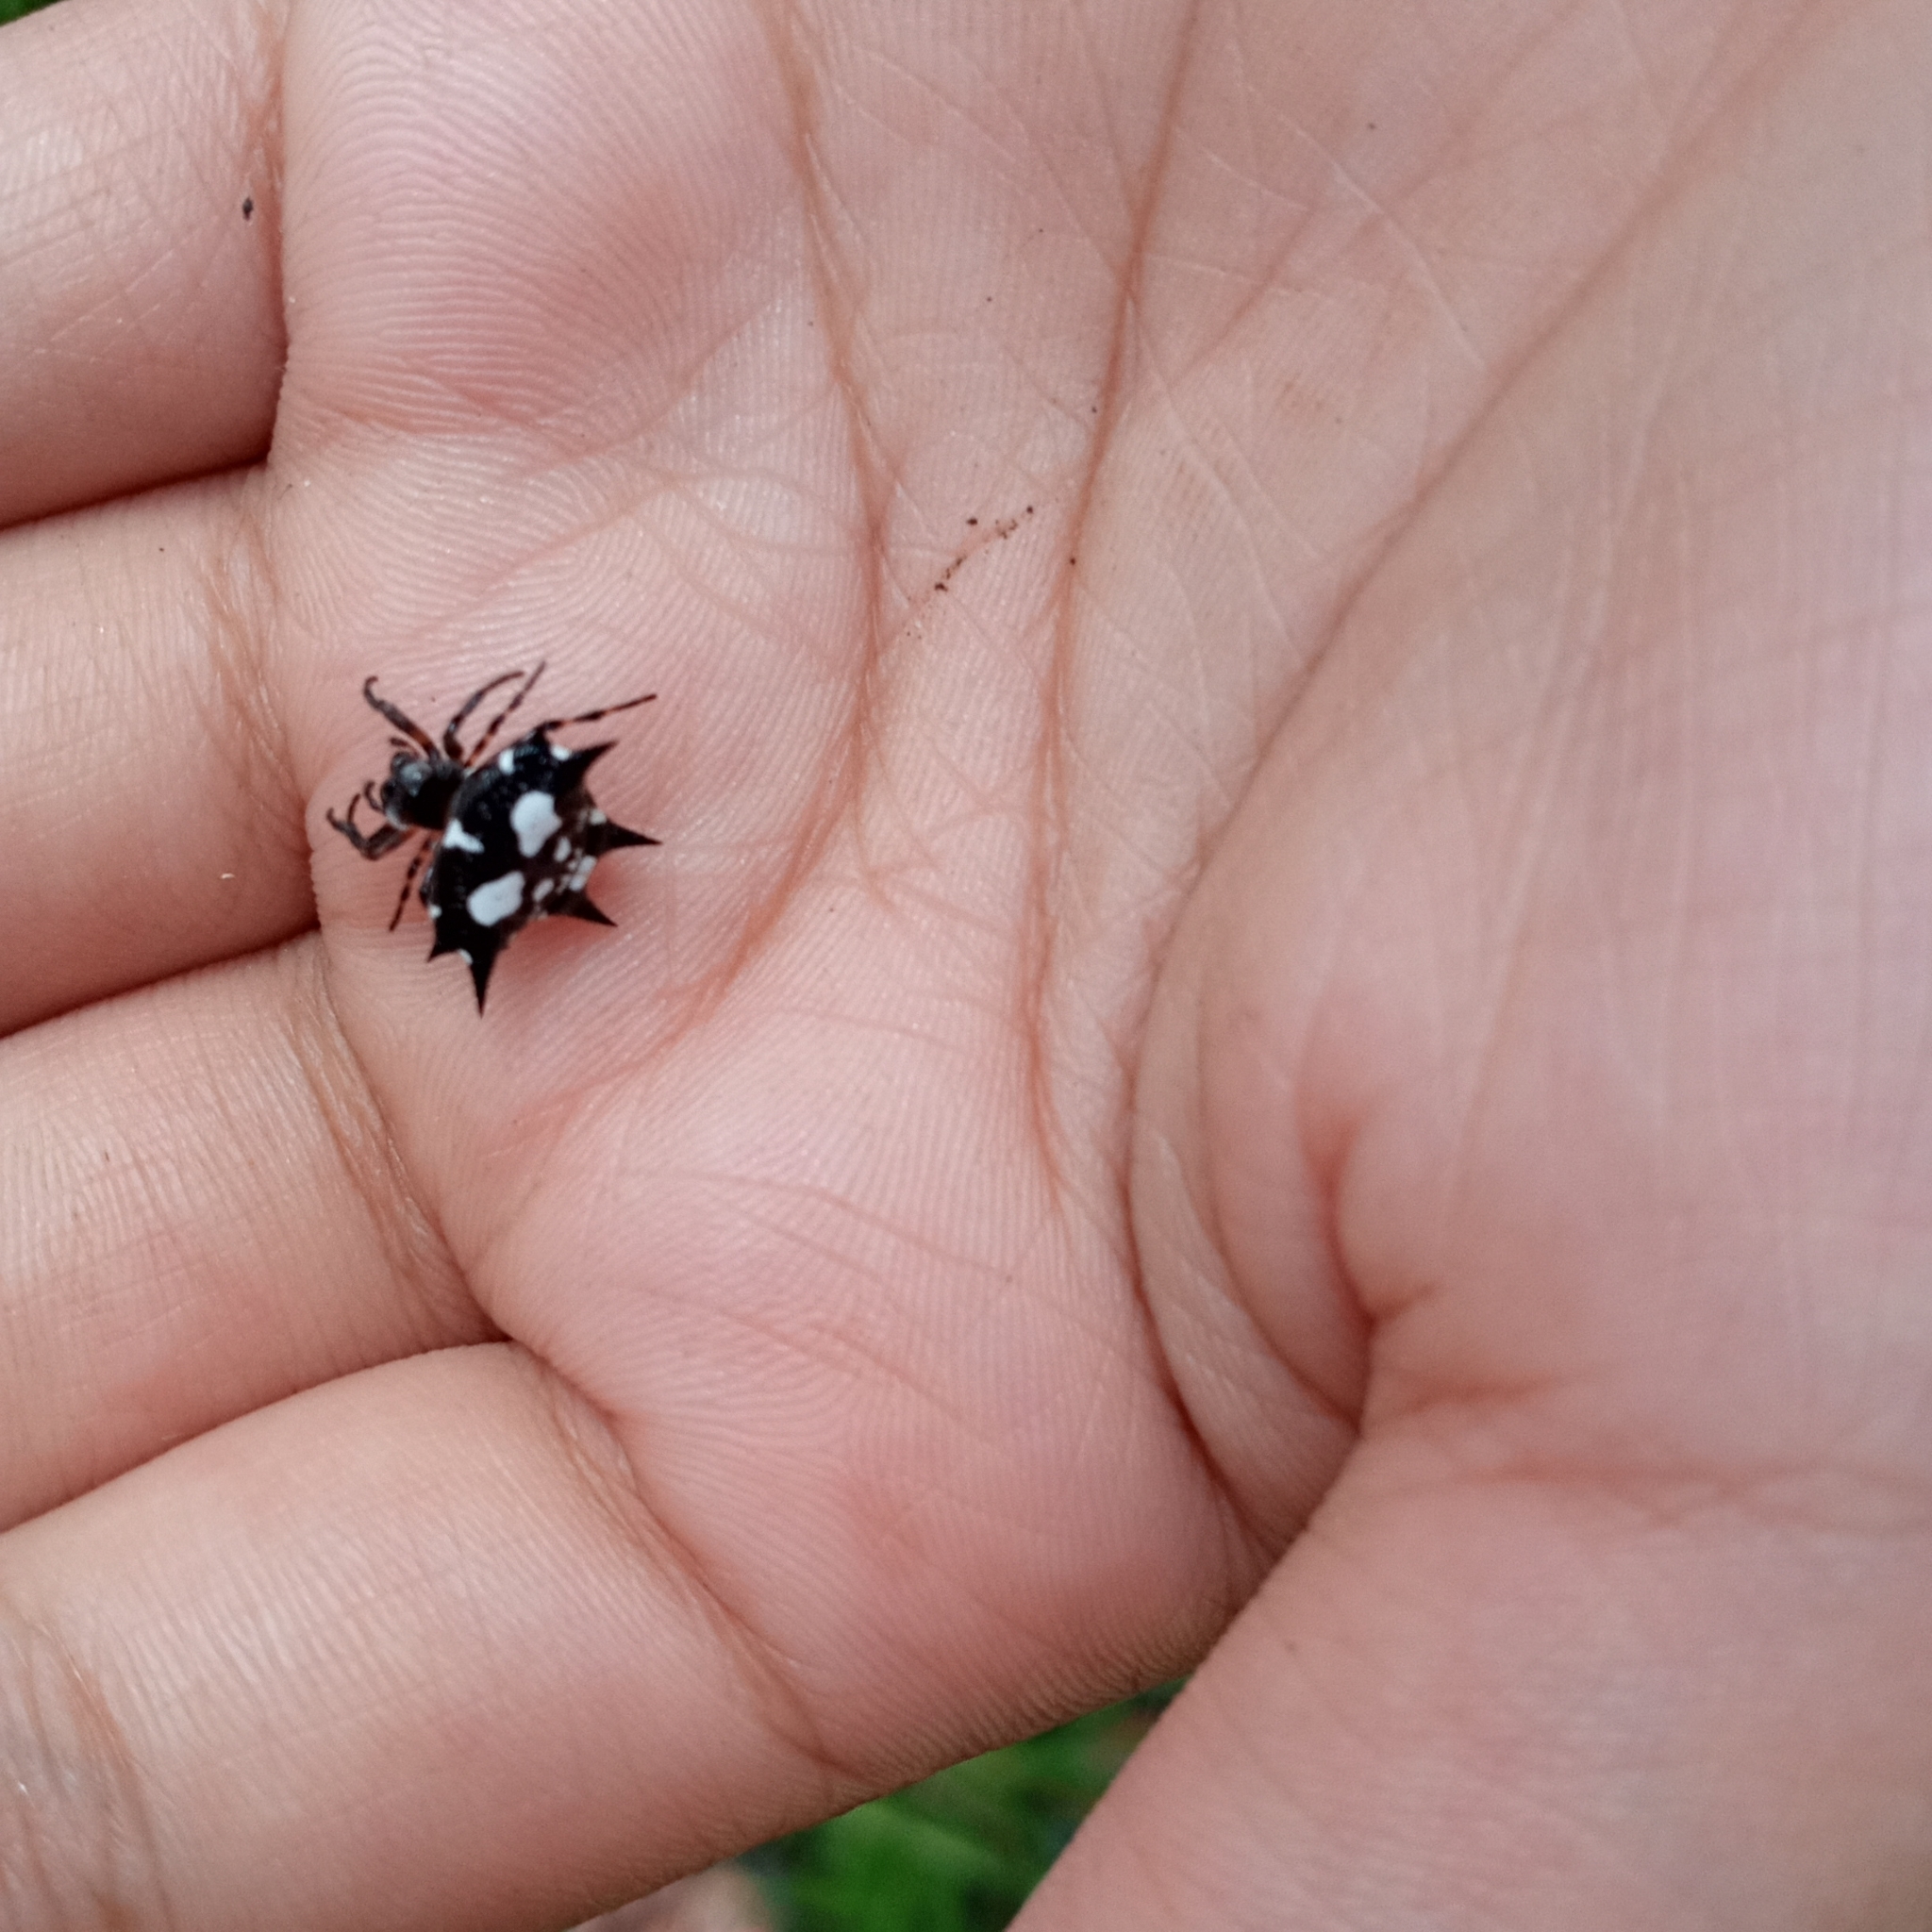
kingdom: Animalia
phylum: Arthropoda
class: Arachnida
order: Araneae
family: Araneidae
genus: Gasteracantha
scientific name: Gasteracantha kuhli
